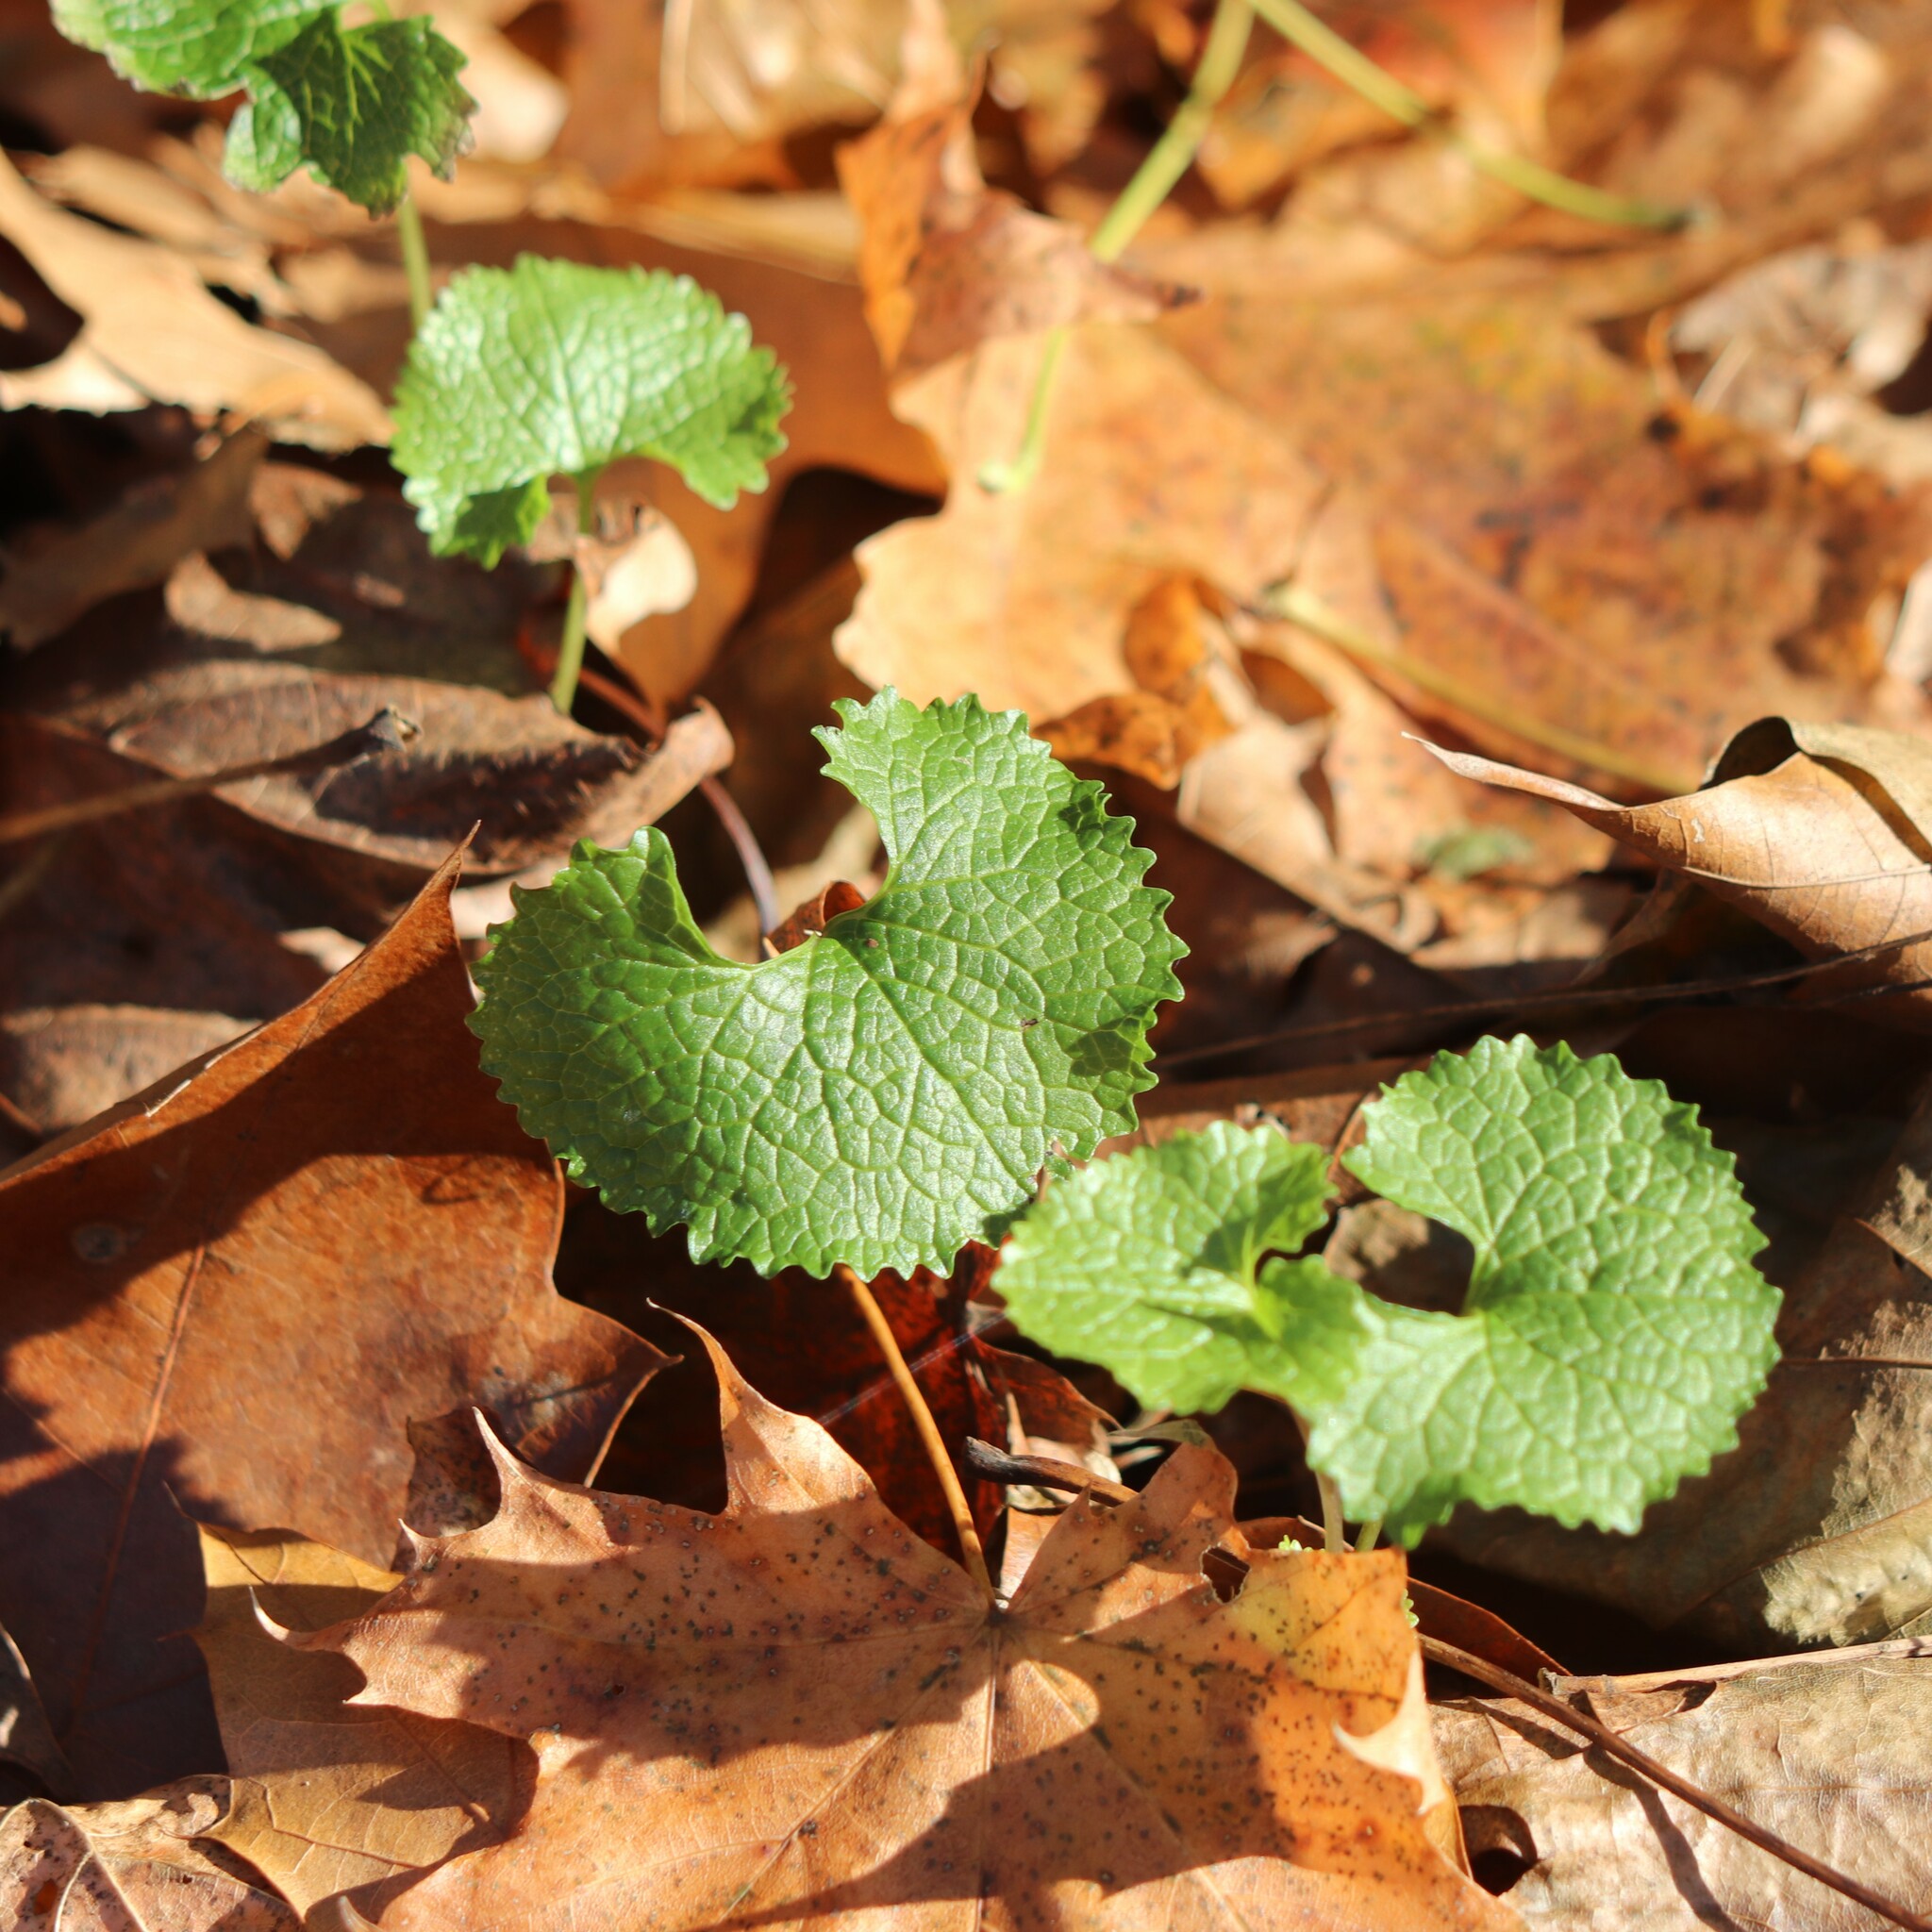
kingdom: Plantae
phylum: Tracheophyta
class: Magnoliopsida
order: Brassicales
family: Brassicaceae
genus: Alliaria
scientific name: Alliaria petiolata
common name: Garlic mustard
